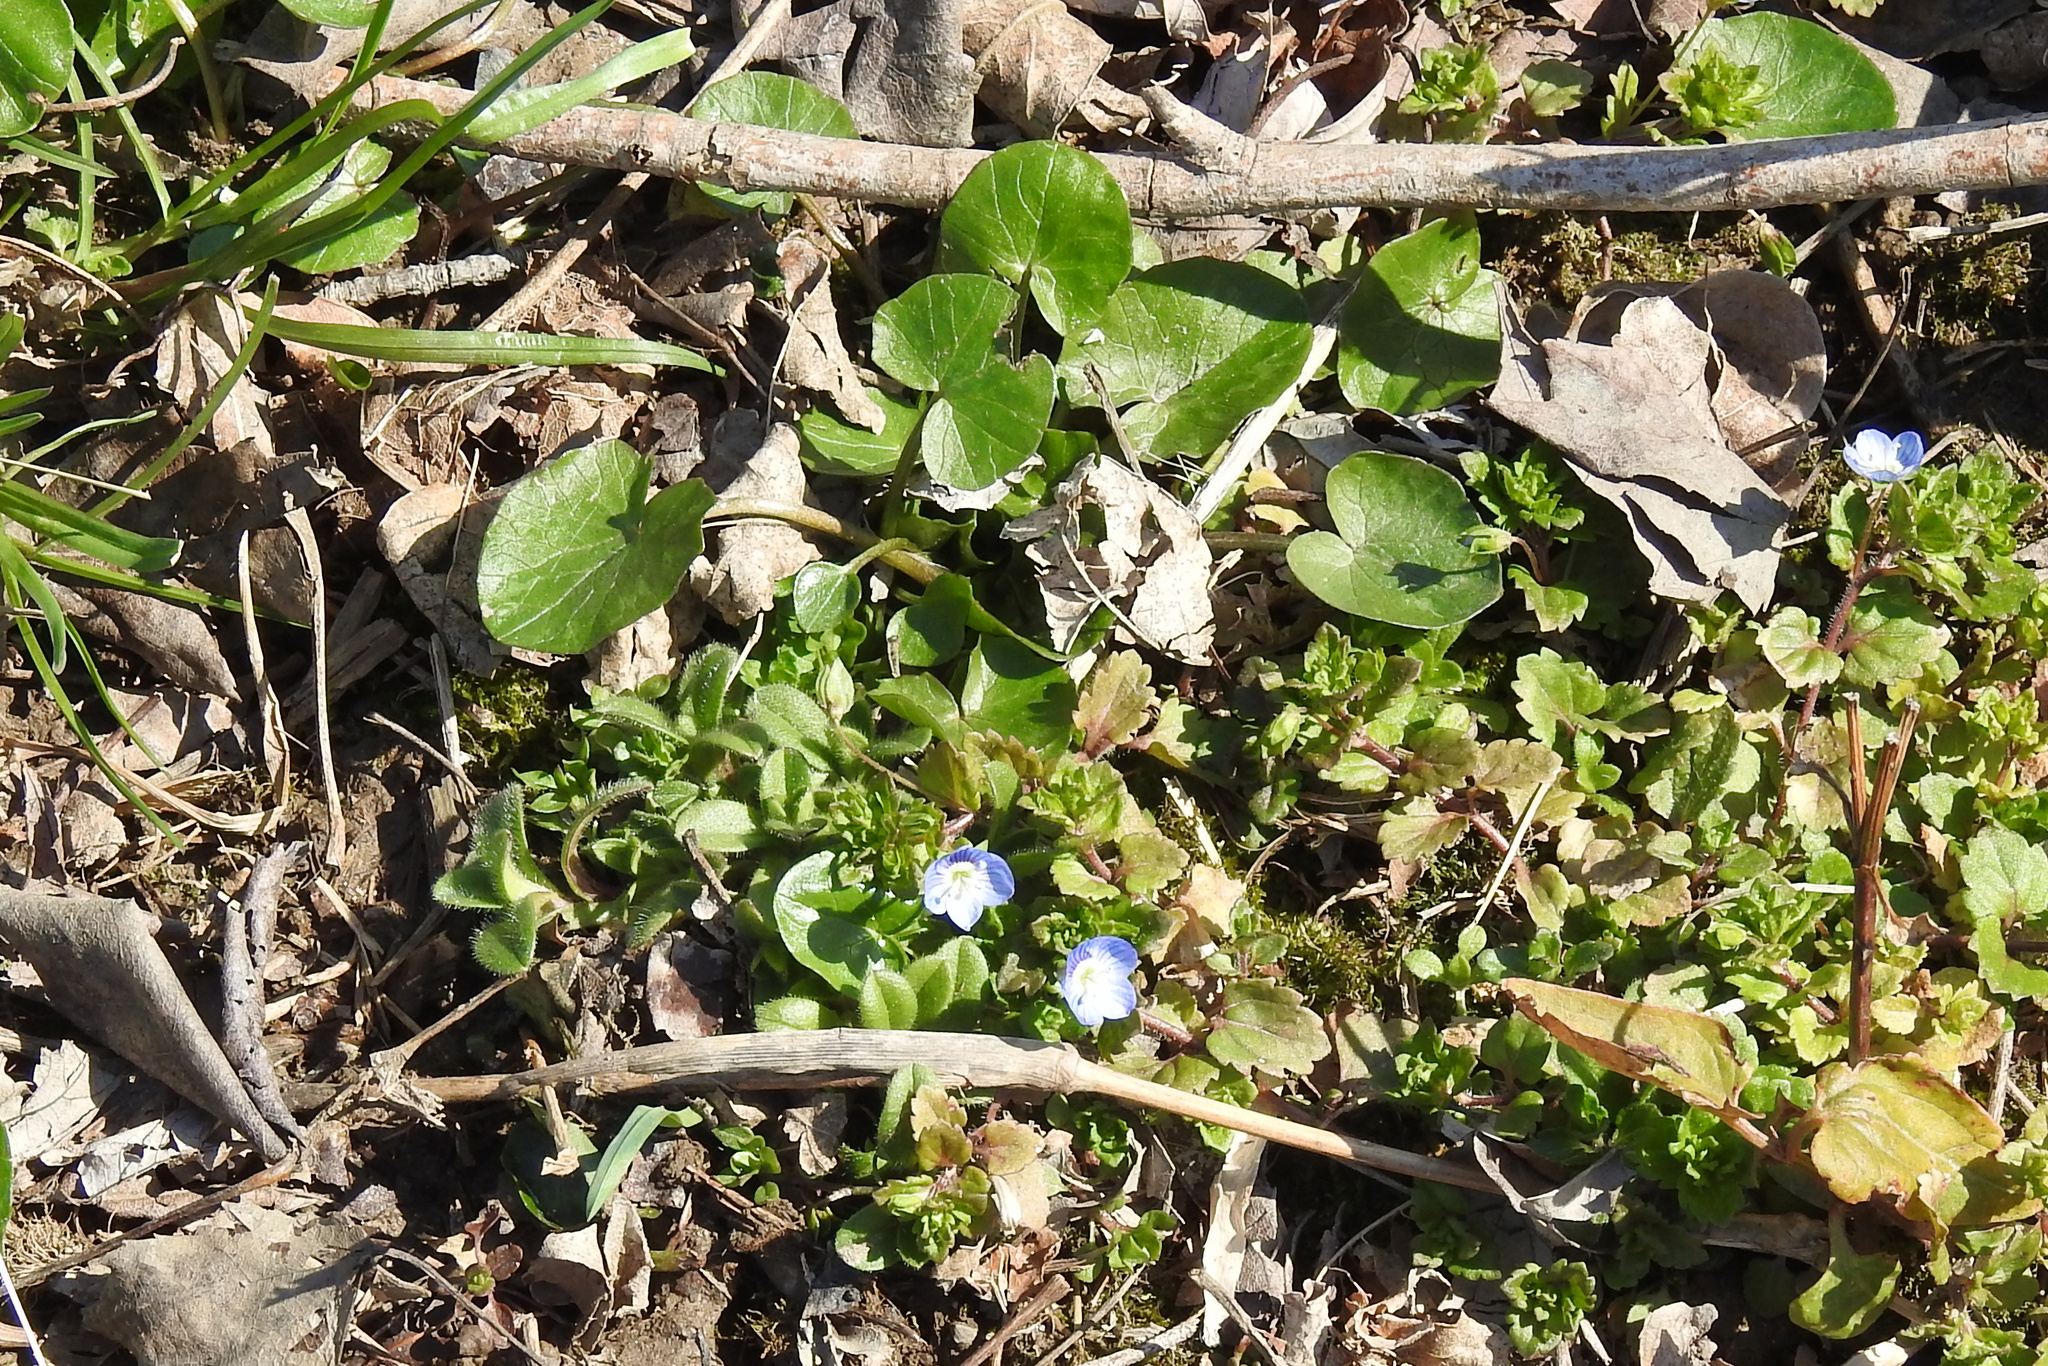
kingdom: Plantae
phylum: Tracheophyta
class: Magnoliopsida
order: Lamiales
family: Plantaginaceae
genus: Veronica
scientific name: Veronica persica
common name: Common field-speedwell
